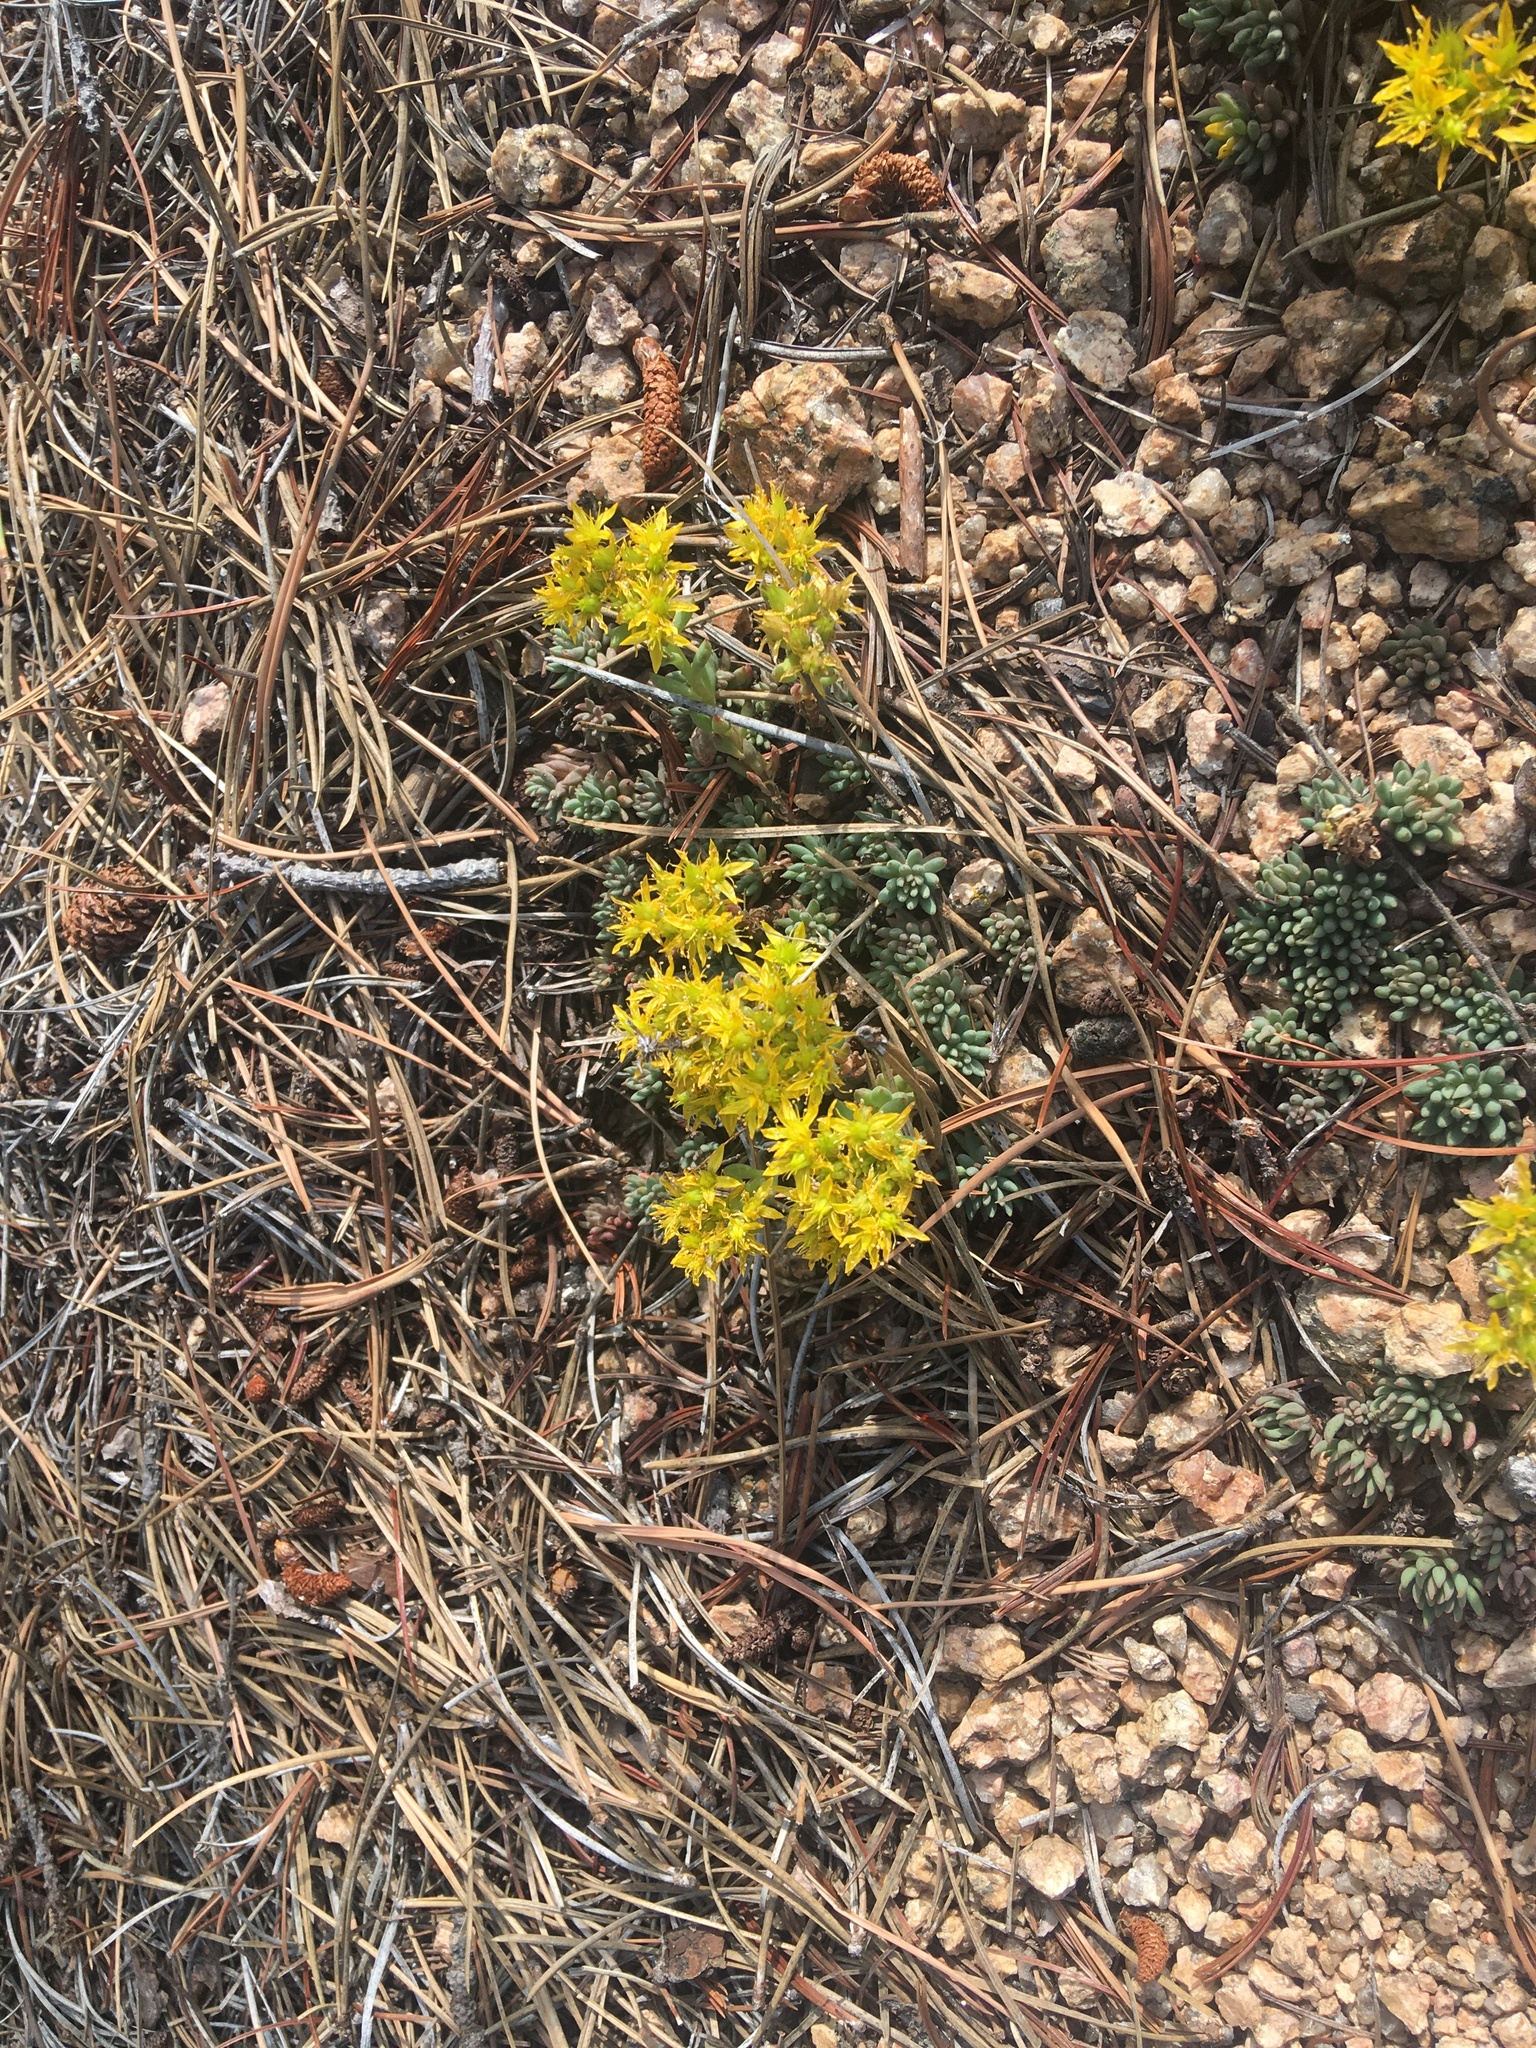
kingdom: Plantae
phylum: Tracheophyta
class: Magnoliopsida
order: Saxifragales
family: Crassulaceae
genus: Sedum
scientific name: Sedum lanceolatum
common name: Common stonecrop
